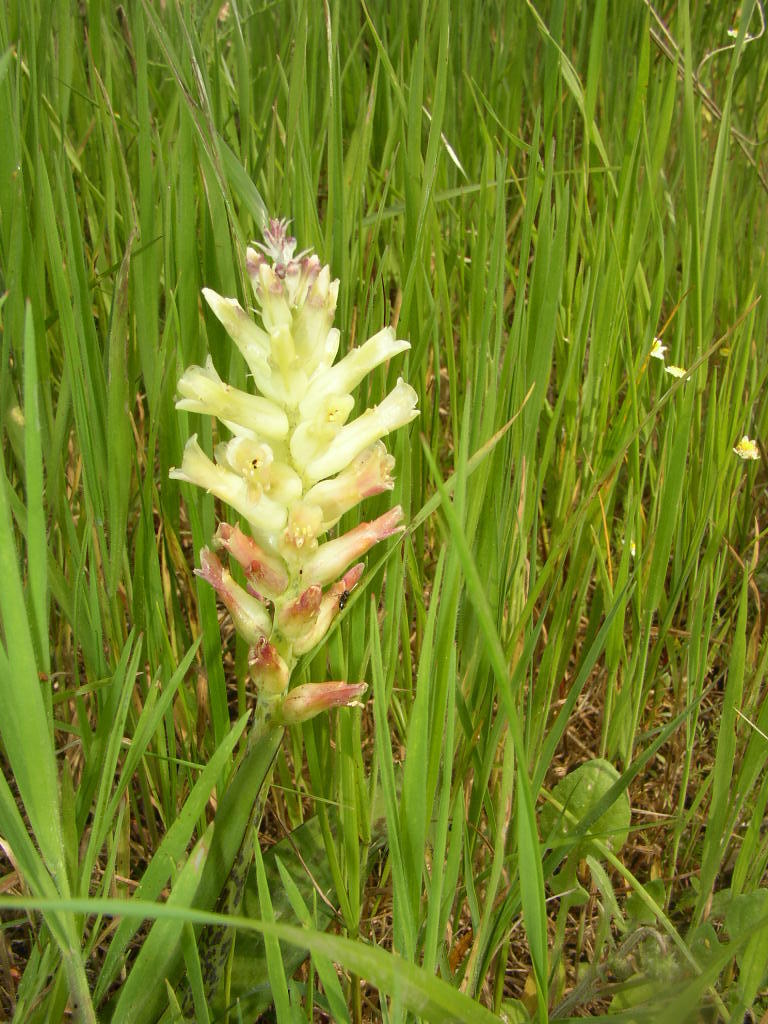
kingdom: Plantae
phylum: Tracheophyta
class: Liliopsida
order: Asparagales
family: Asparagaceae
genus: Lachenalia
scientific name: Lachenalia orchioides
